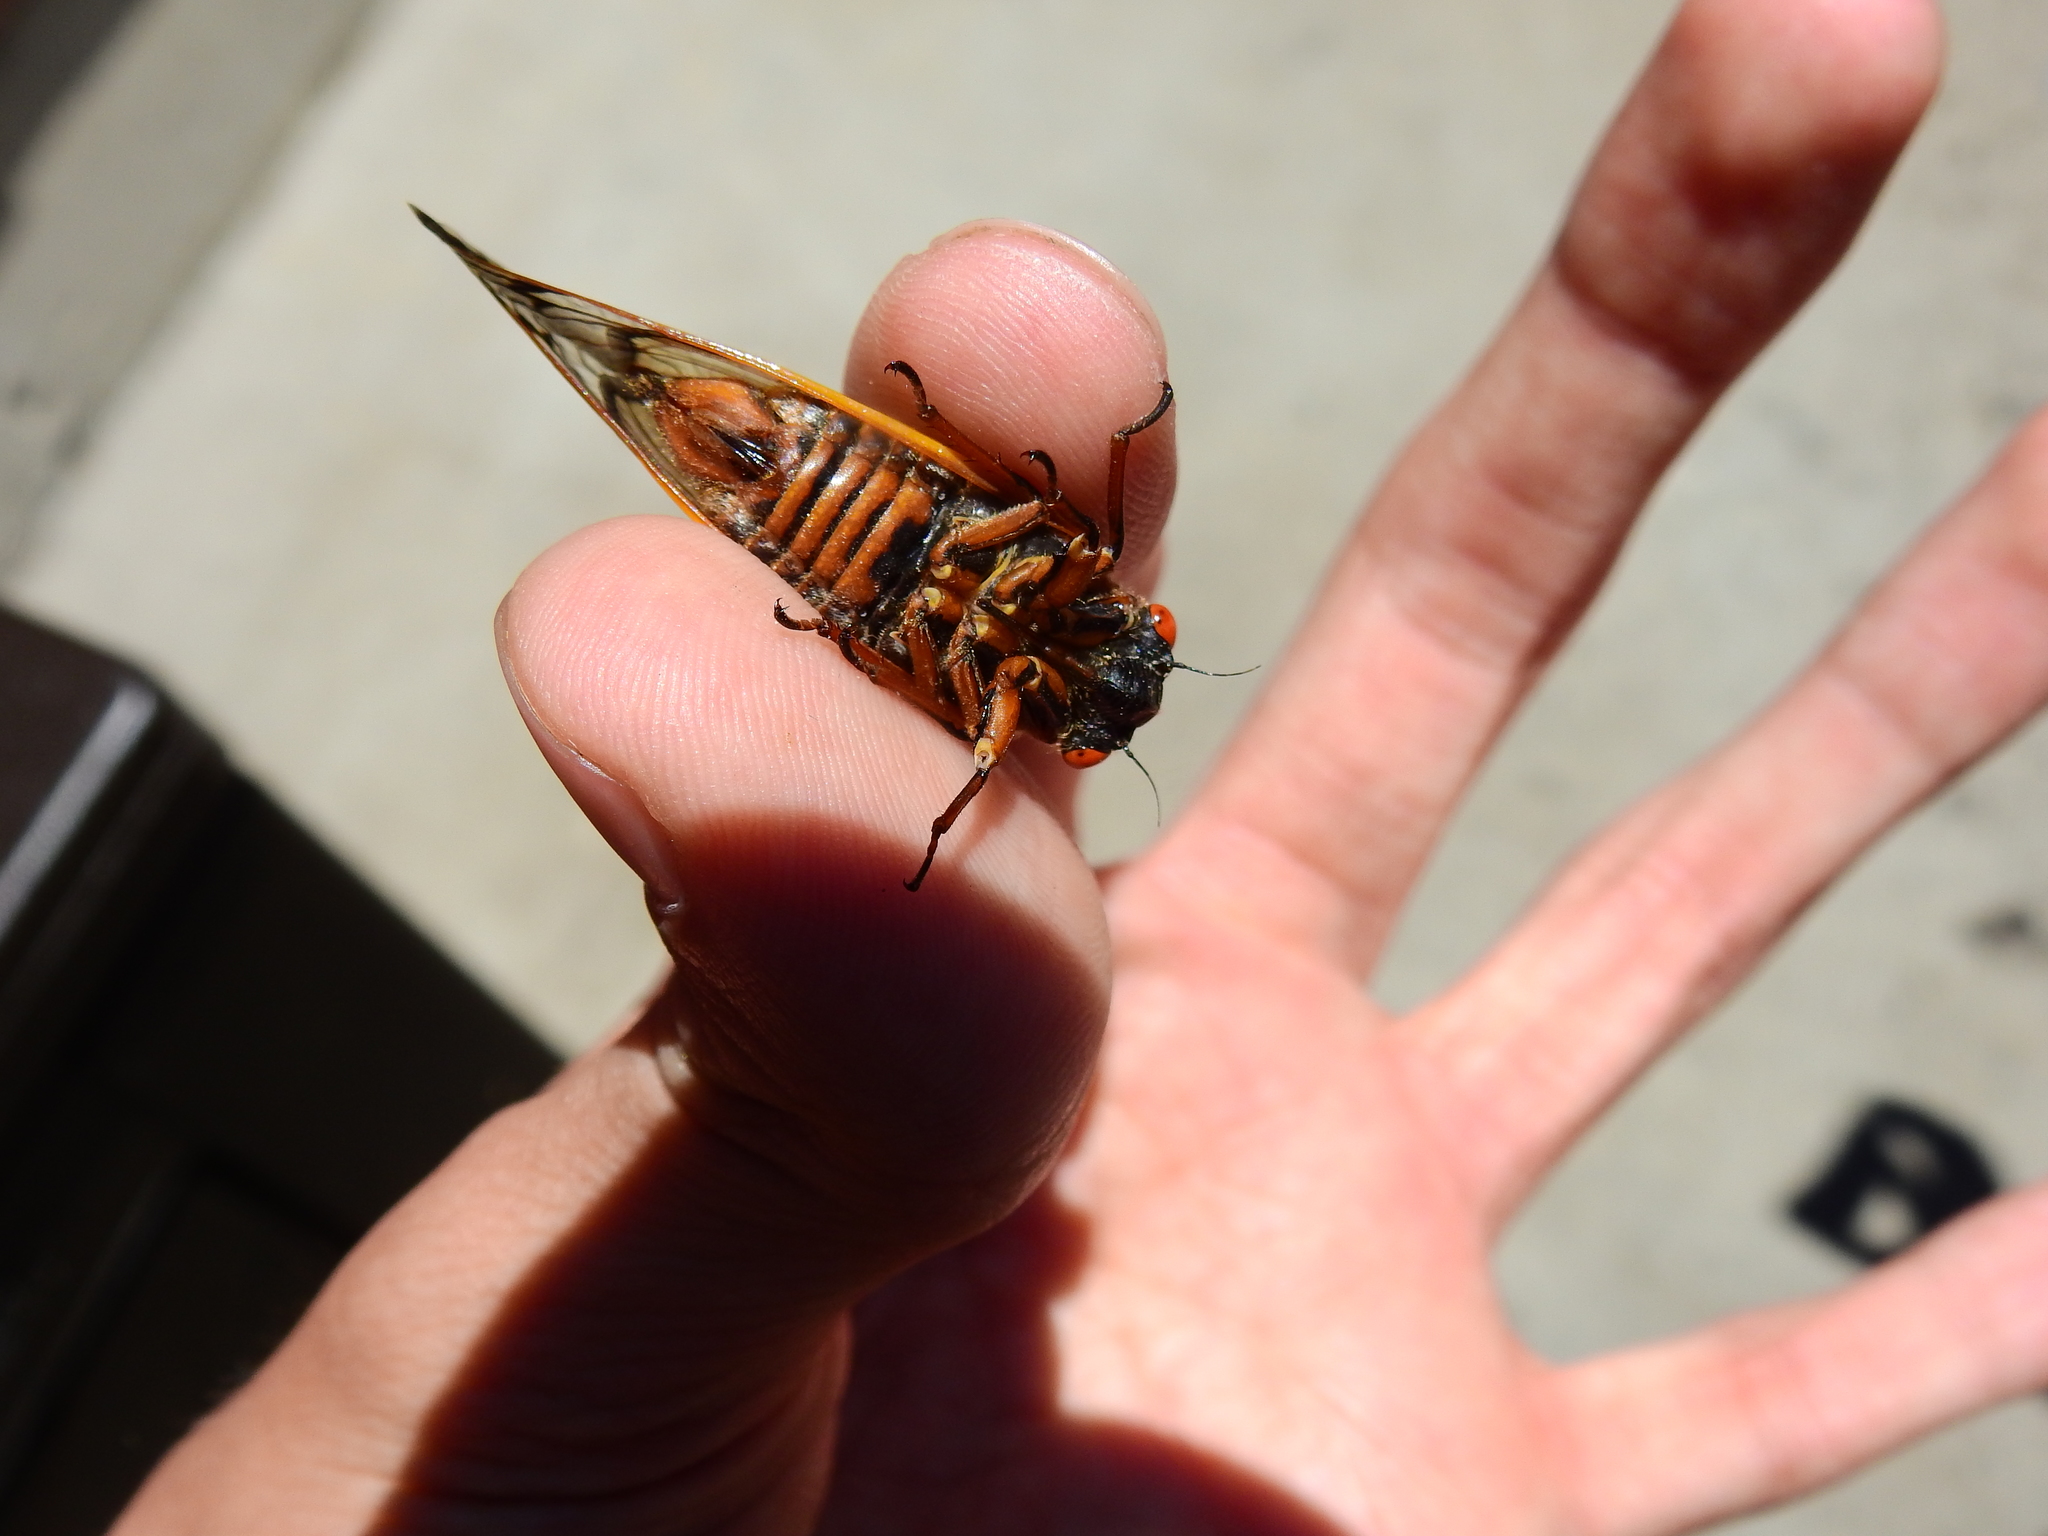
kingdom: Animalia
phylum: Arthropoda
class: Insecta
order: Hemiptera
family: Cicadidae
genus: Magicicada
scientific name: Magicicada septendecim
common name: Periodical cicada
